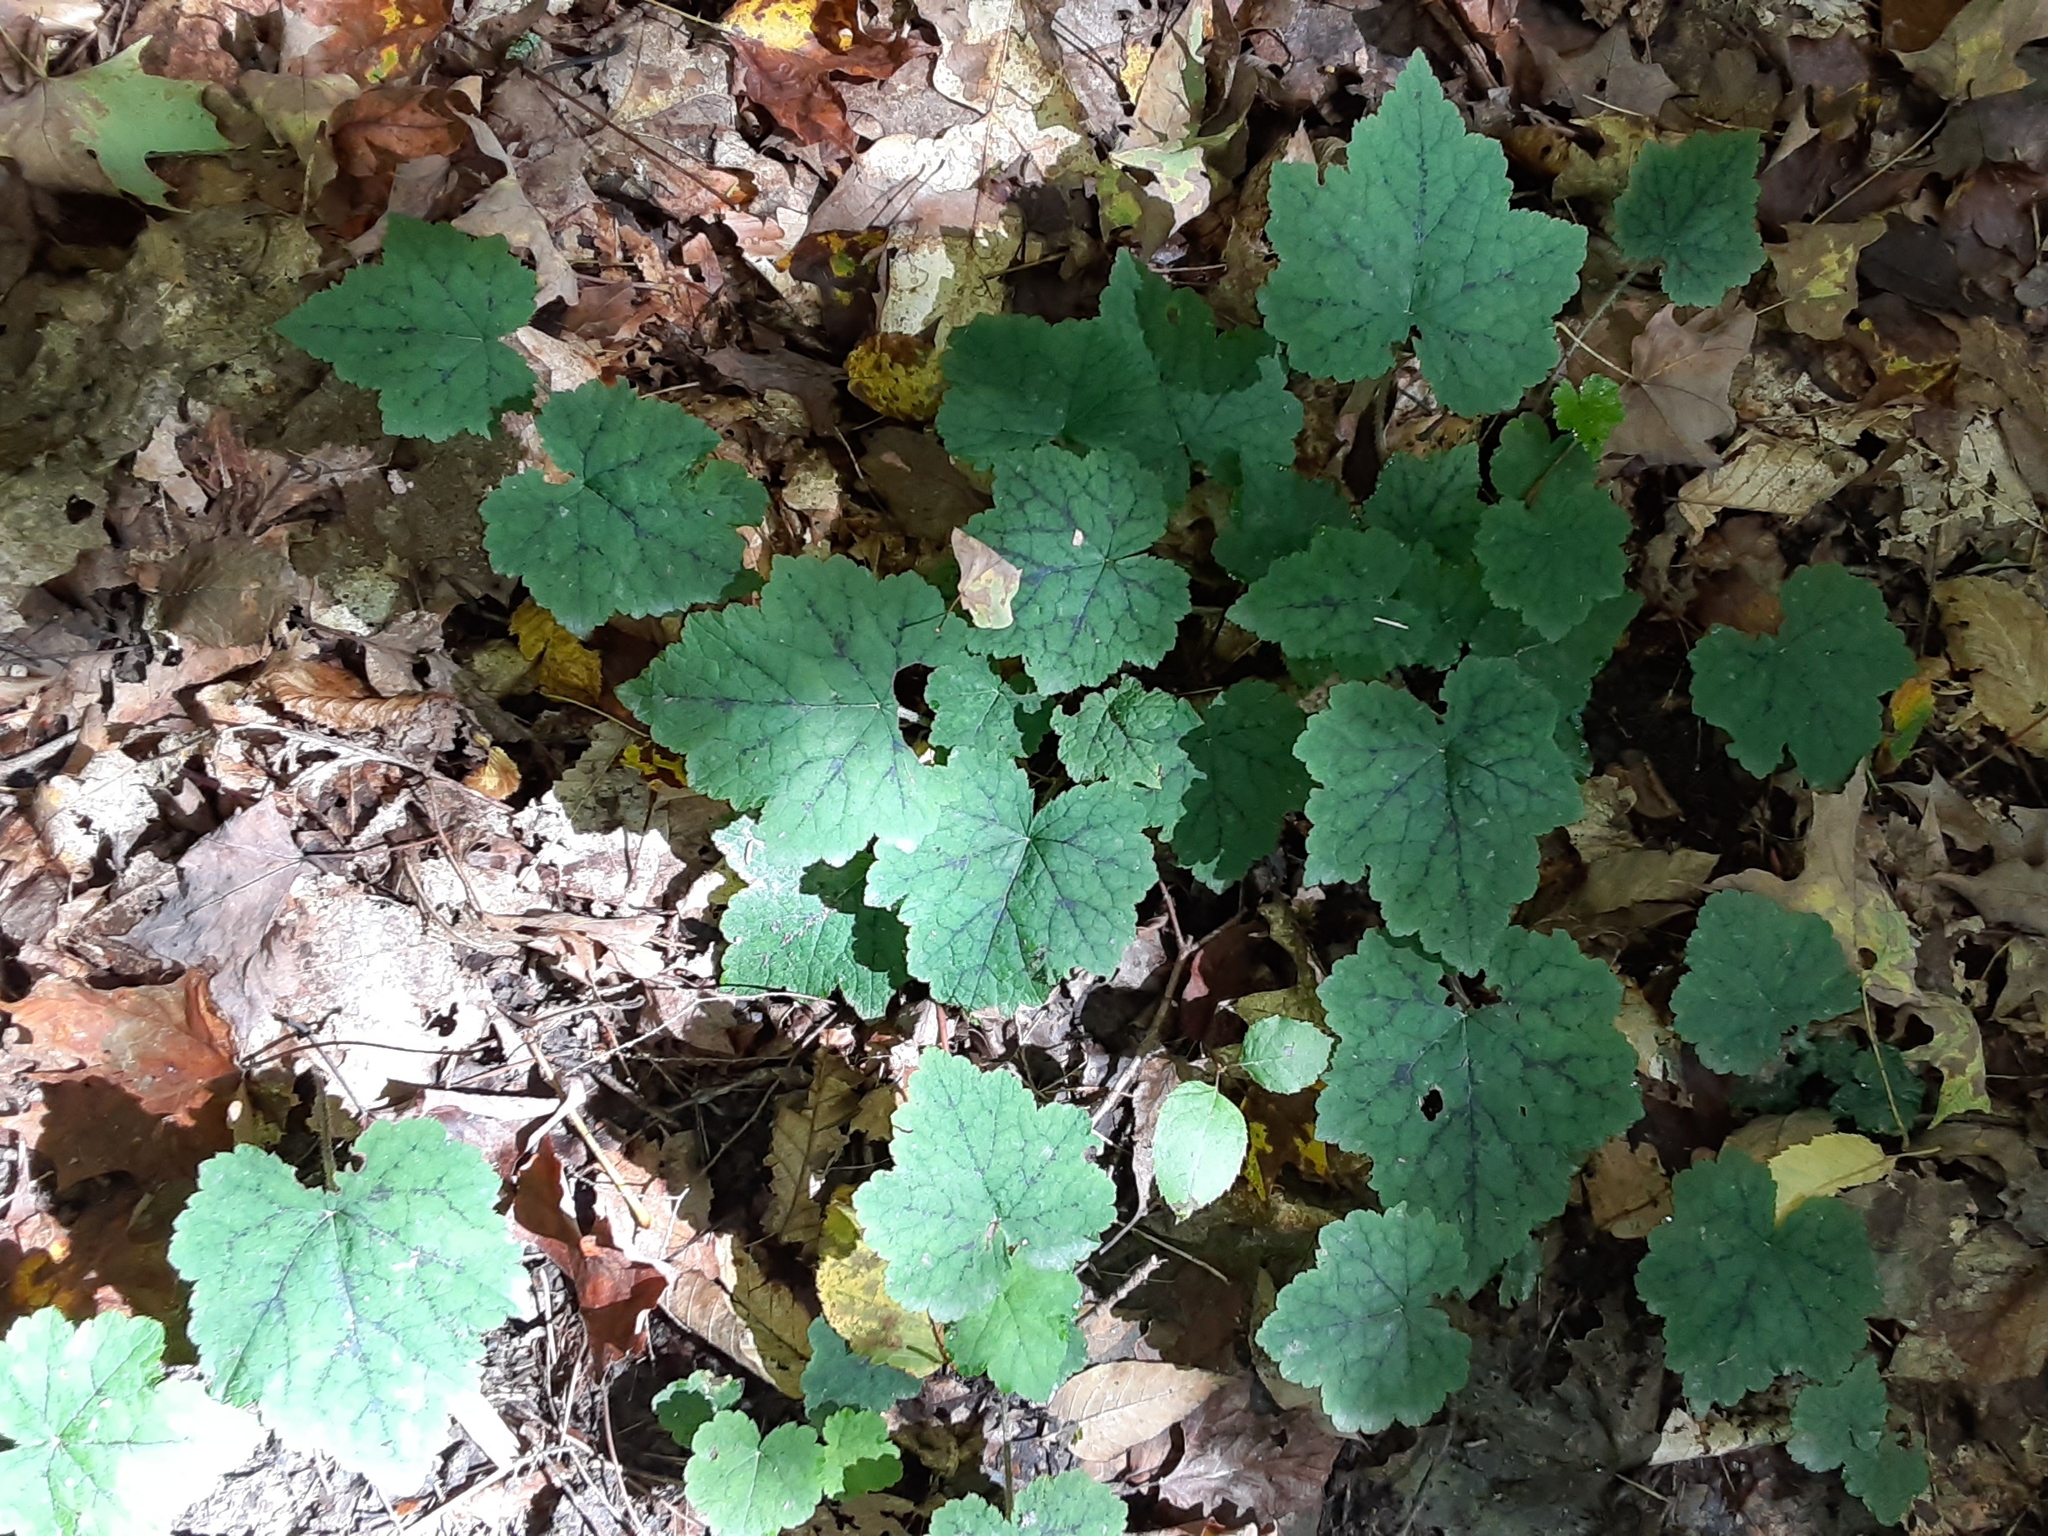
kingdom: Plantae
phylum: Tracheophyta
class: Magnoliopsida
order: Saxifragales
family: Saxifragaceae
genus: Tiarella
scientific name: Tiarella stolonifera
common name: Stoloniferous foamflower
